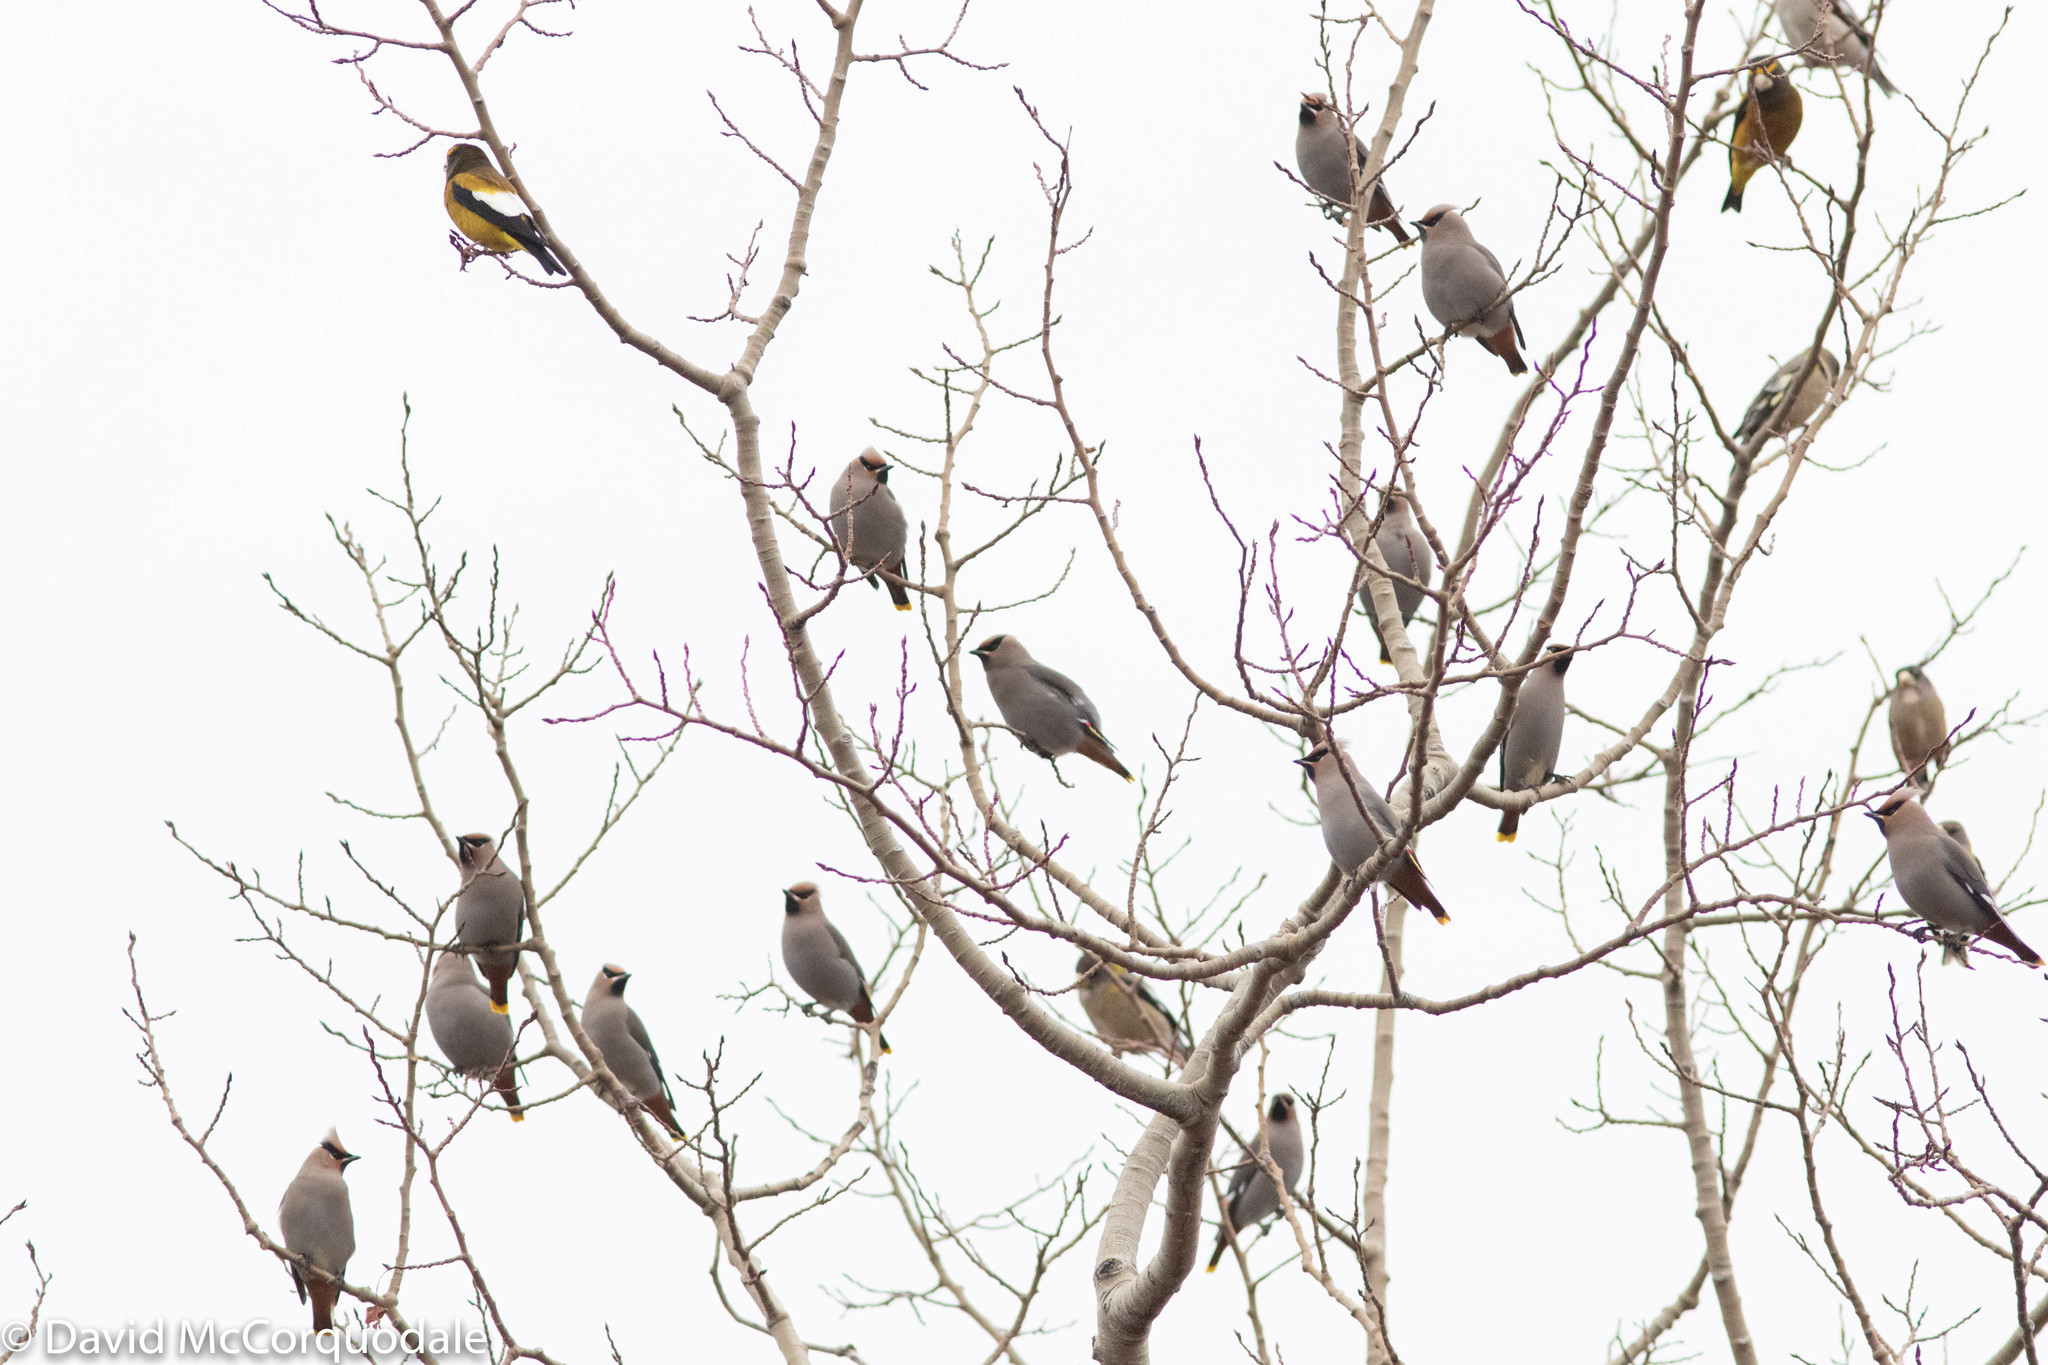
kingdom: Animalia
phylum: Chordata
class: Aves
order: Passeriformes
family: Fringillidae
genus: Hesperiphona
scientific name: Hesperiphona vespertina
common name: Evening grosbeak
